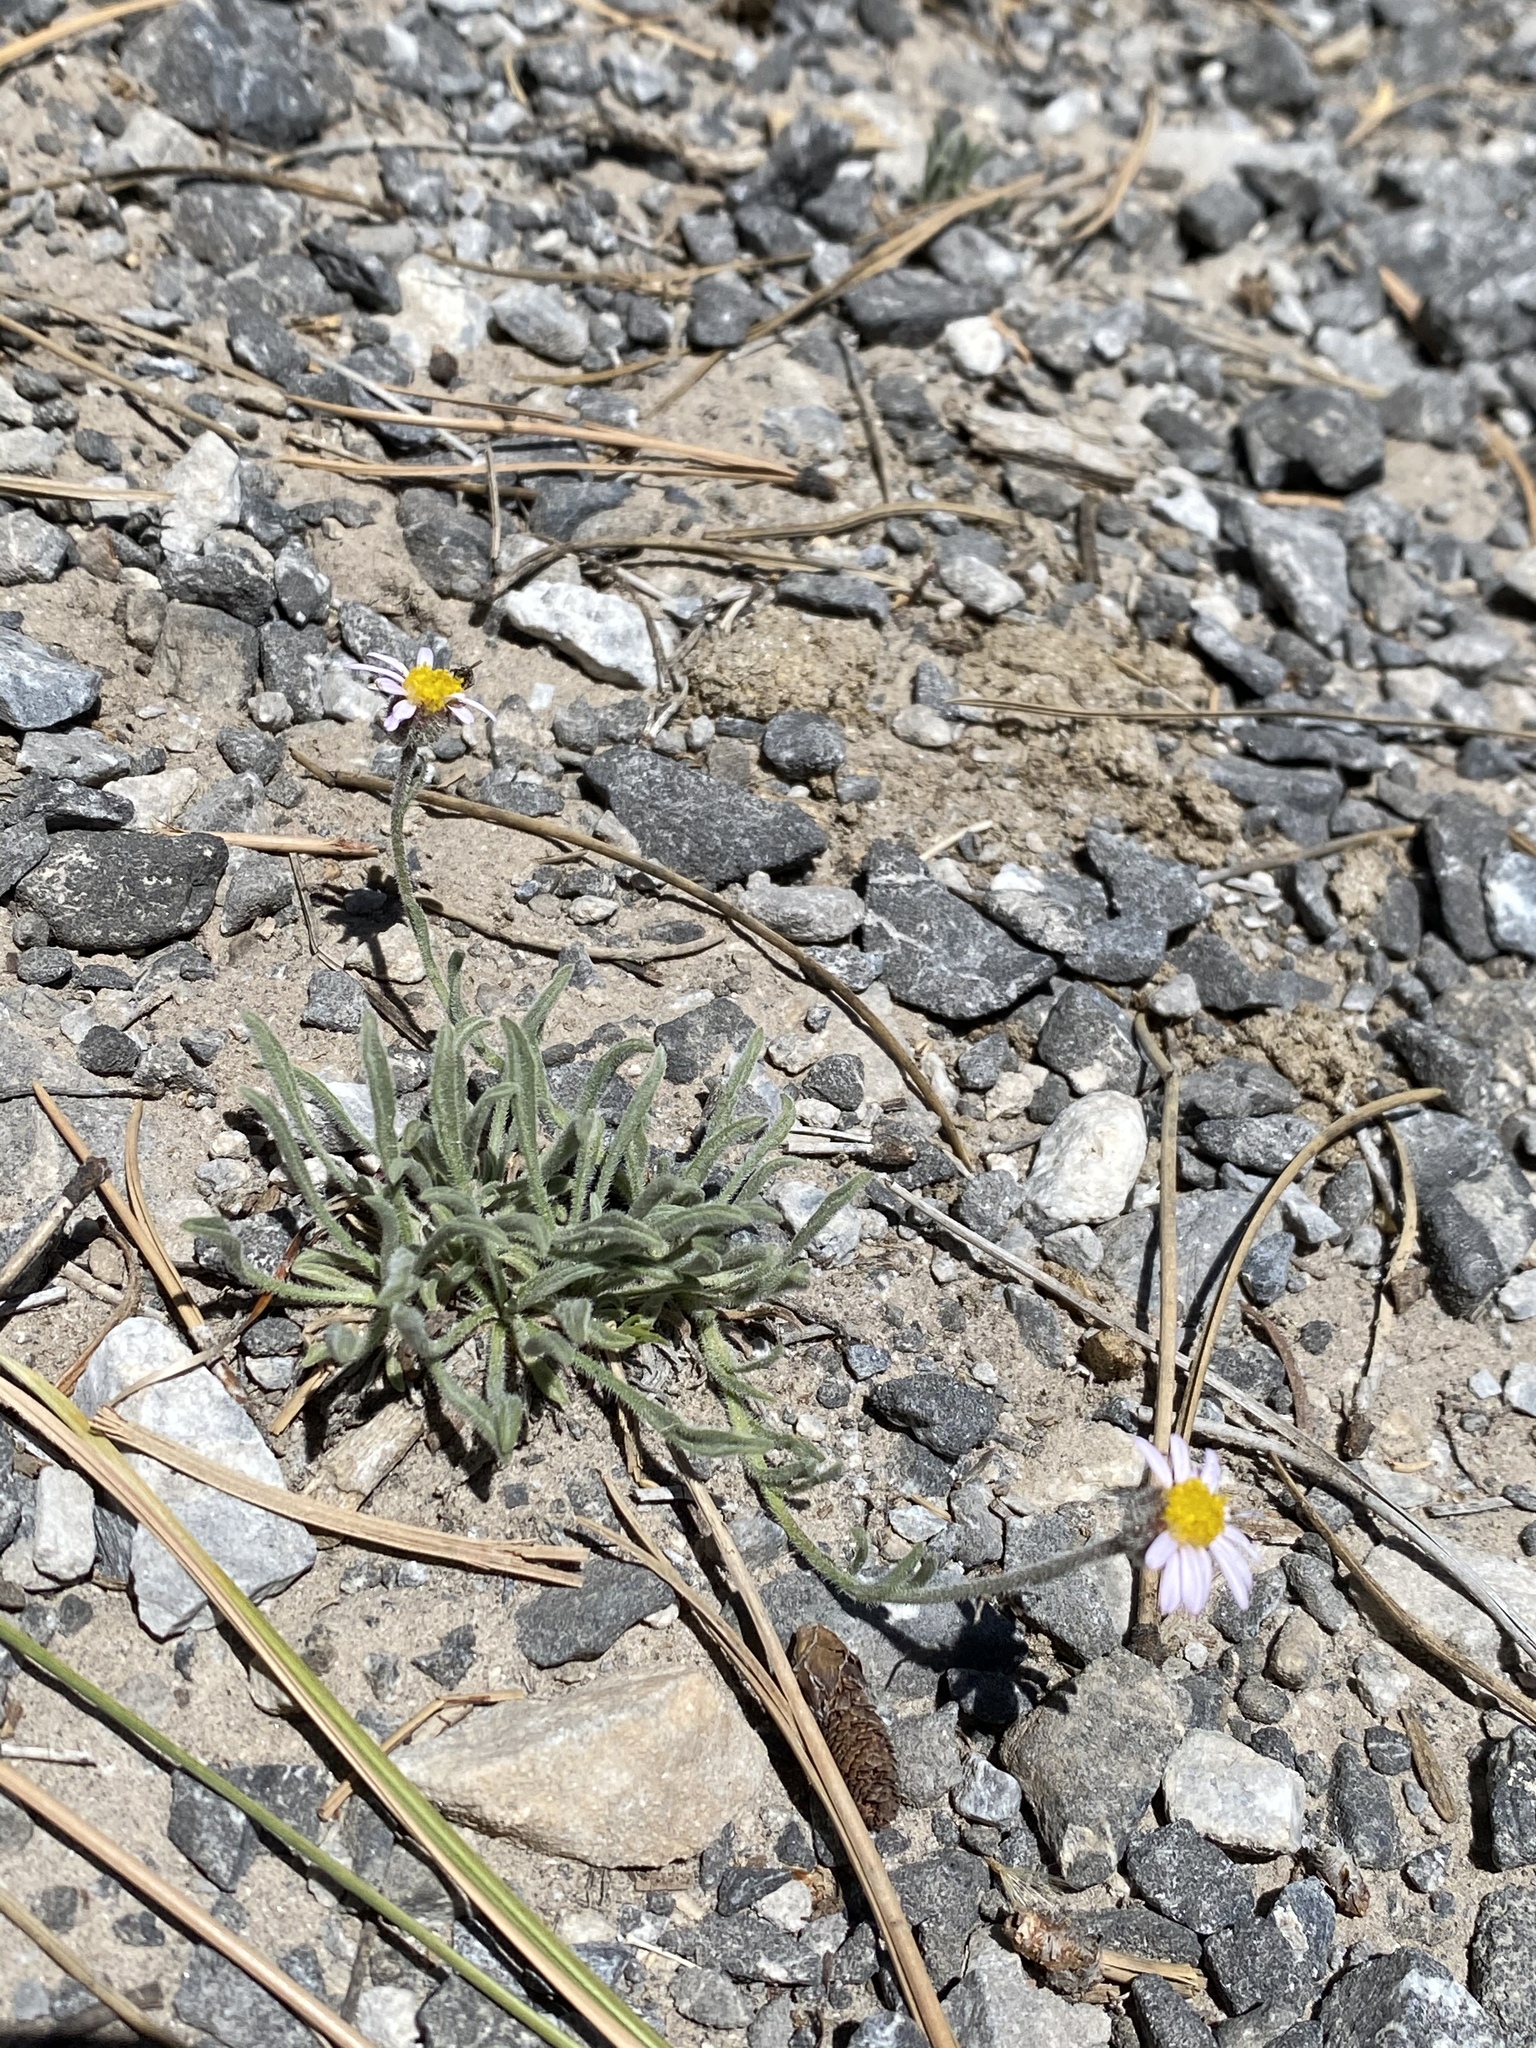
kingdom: Plantae
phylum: Tracheophyta
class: Magnoliopsida
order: Asterales
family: Asteraceae
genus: Erigeron
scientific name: Erigeron clokeyi
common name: Clokey's fleabane
